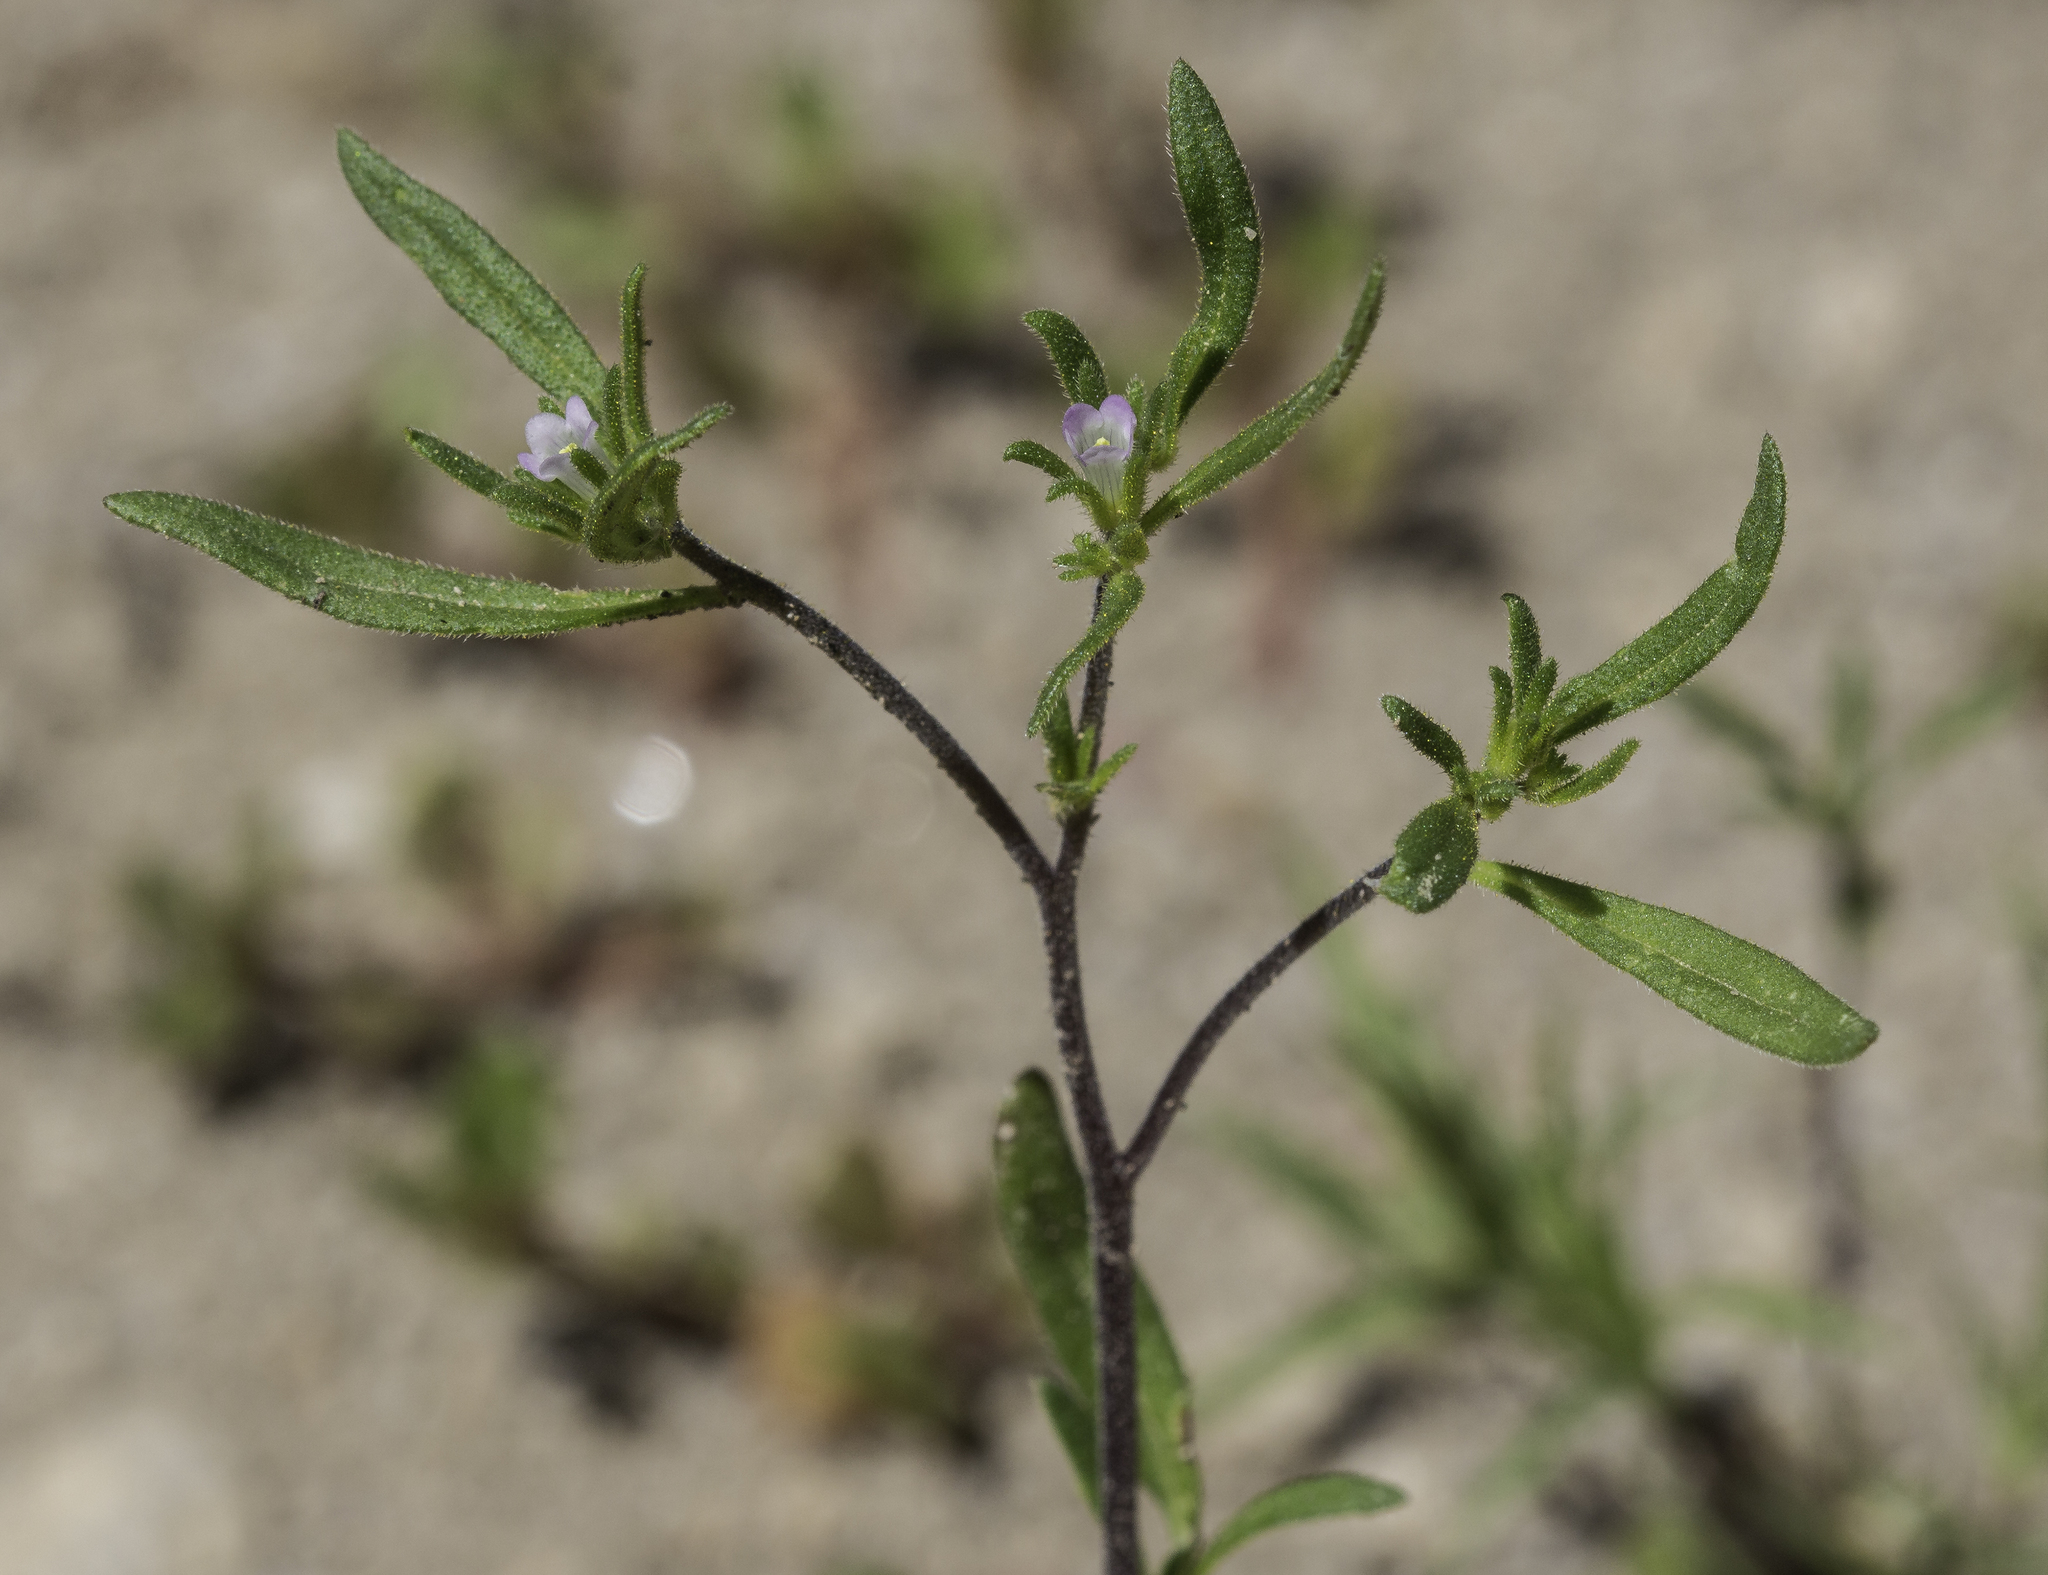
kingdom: Plantae
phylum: Tracheophyta
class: Magnoliopsida
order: Boraginales
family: Namaceae
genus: Nama
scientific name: Nama dichotoma
